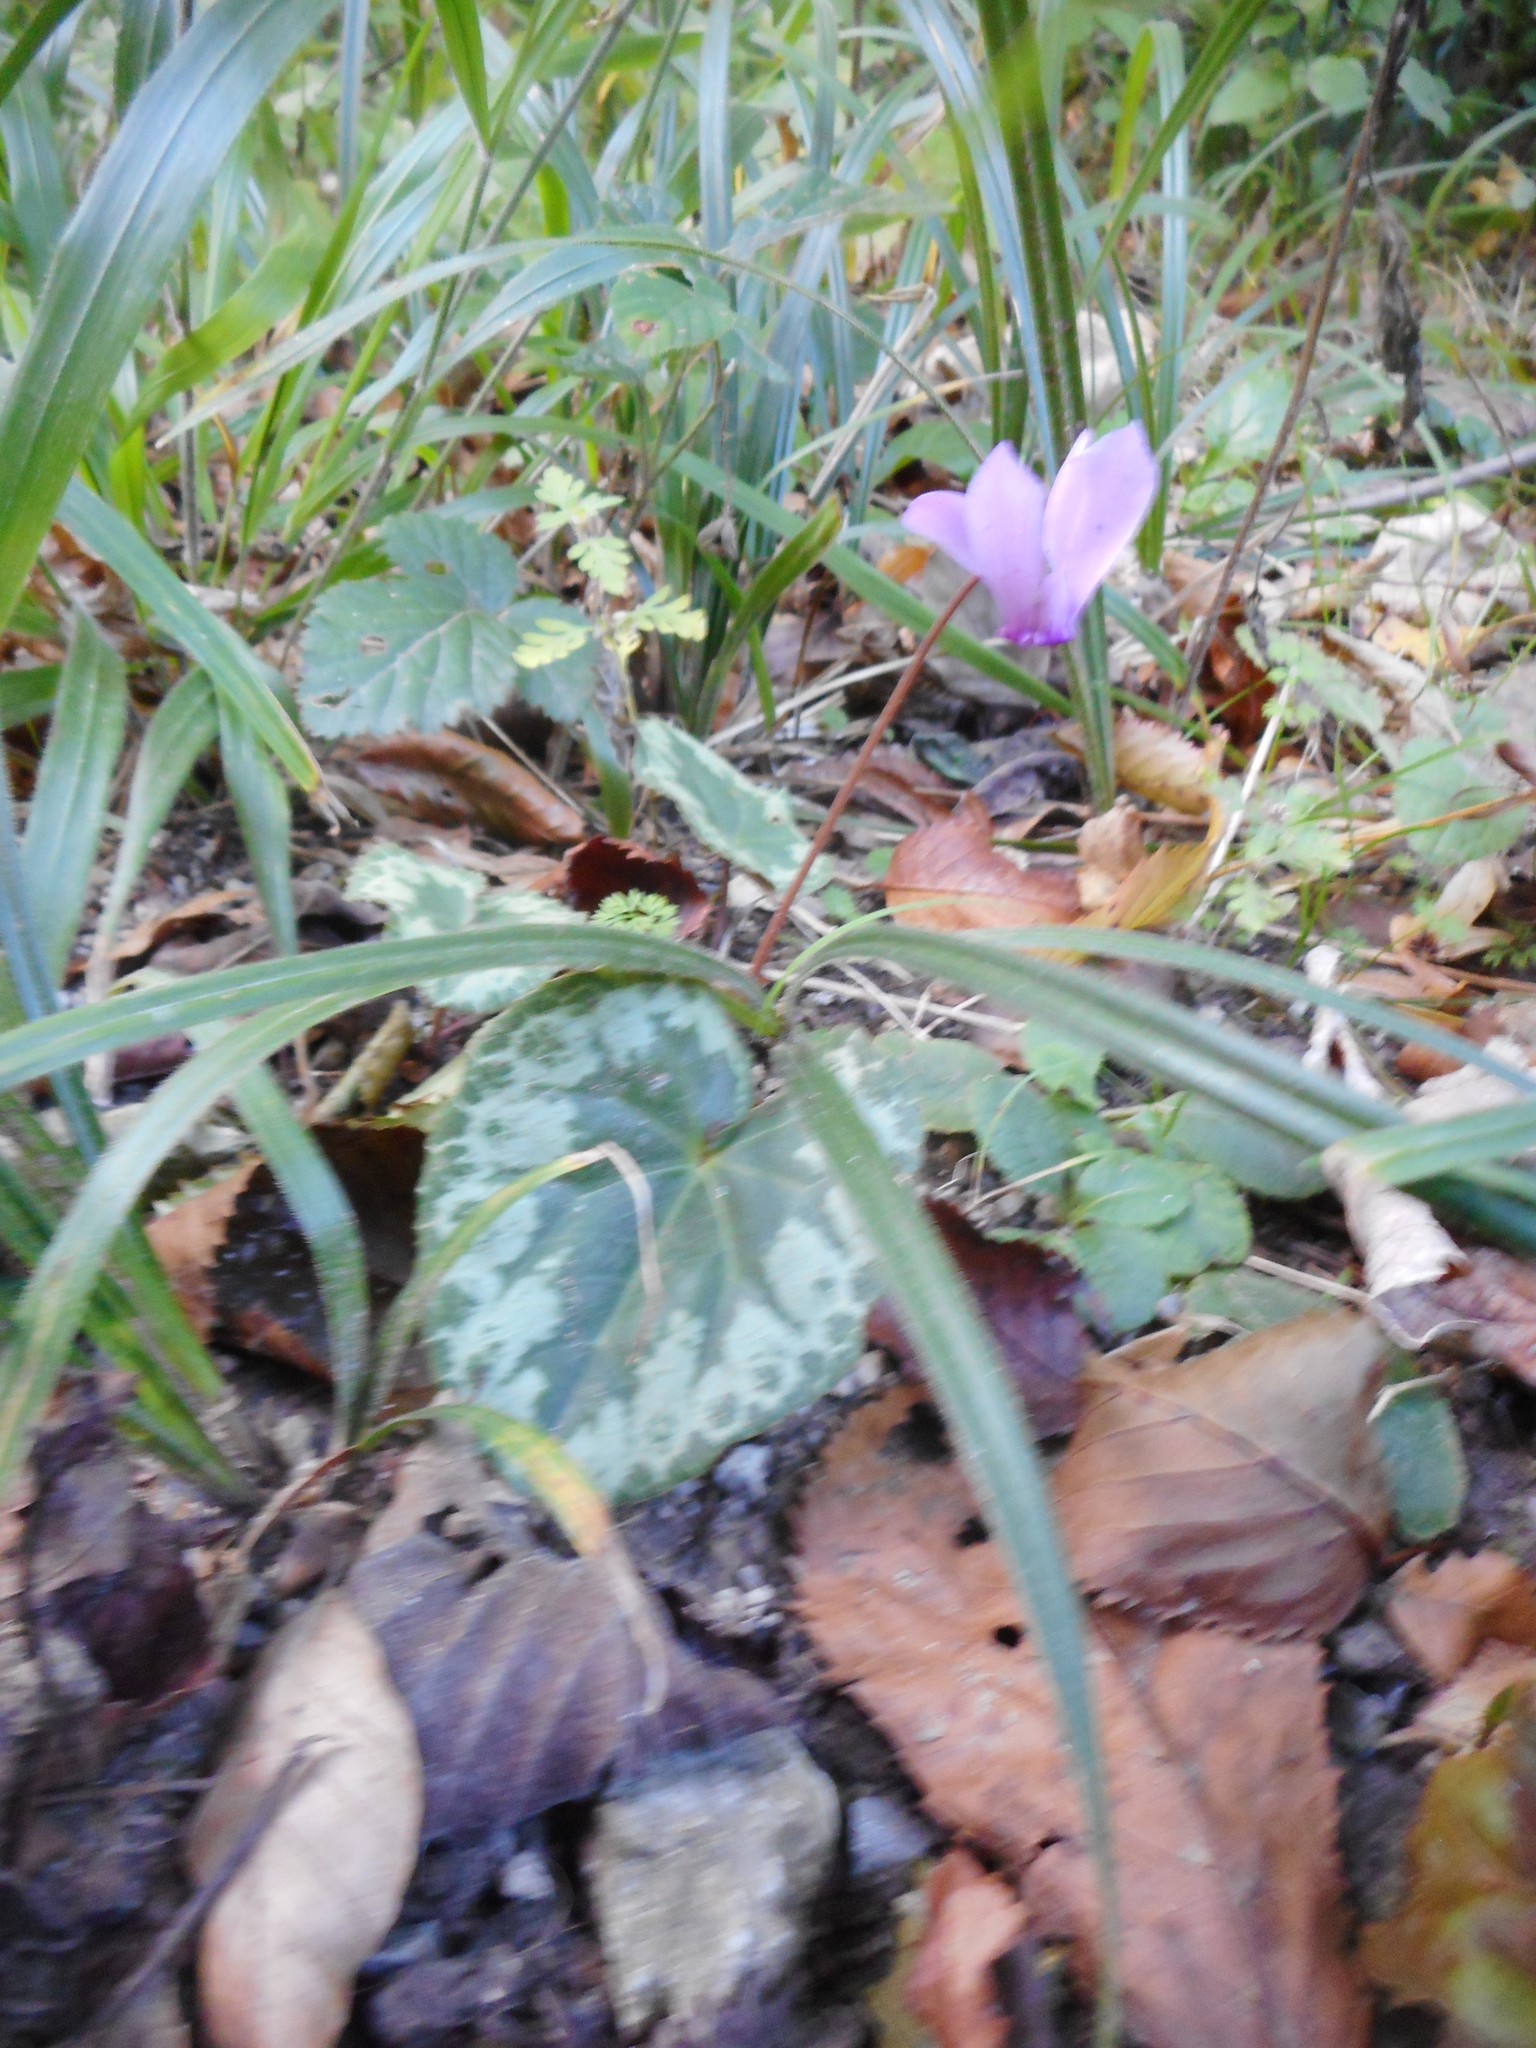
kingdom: Plantae
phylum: Tracheophyta
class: Magnoliopsida
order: Ericales
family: Primulaceae
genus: Cyclamen
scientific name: Cyclamen purpurascens
